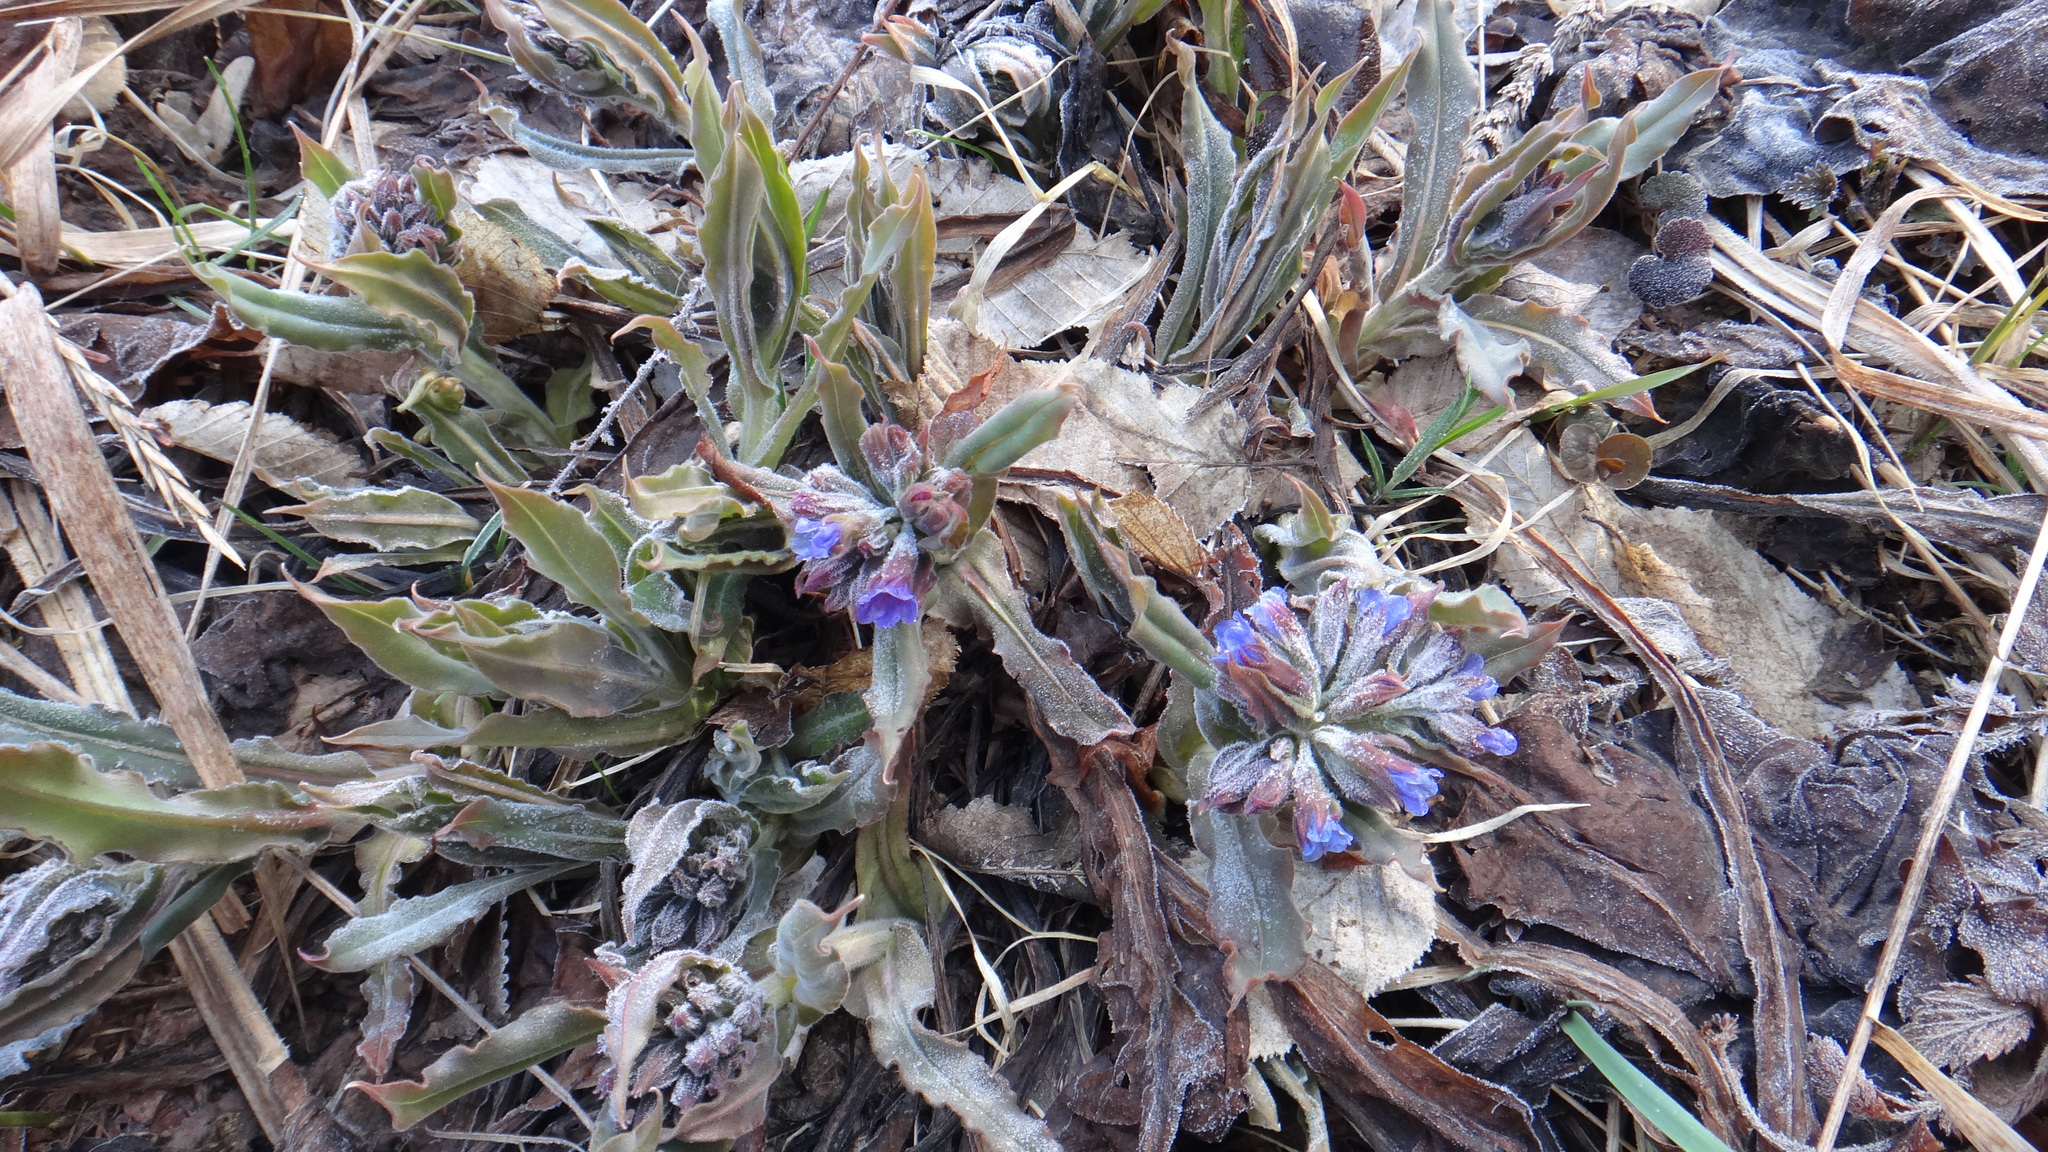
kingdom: Plantae
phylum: Tracheophyta
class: Magnoliopsida
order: Boraginales
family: Boraginaceae
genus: Pulmonaria
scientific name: Pulmonaria mollis
